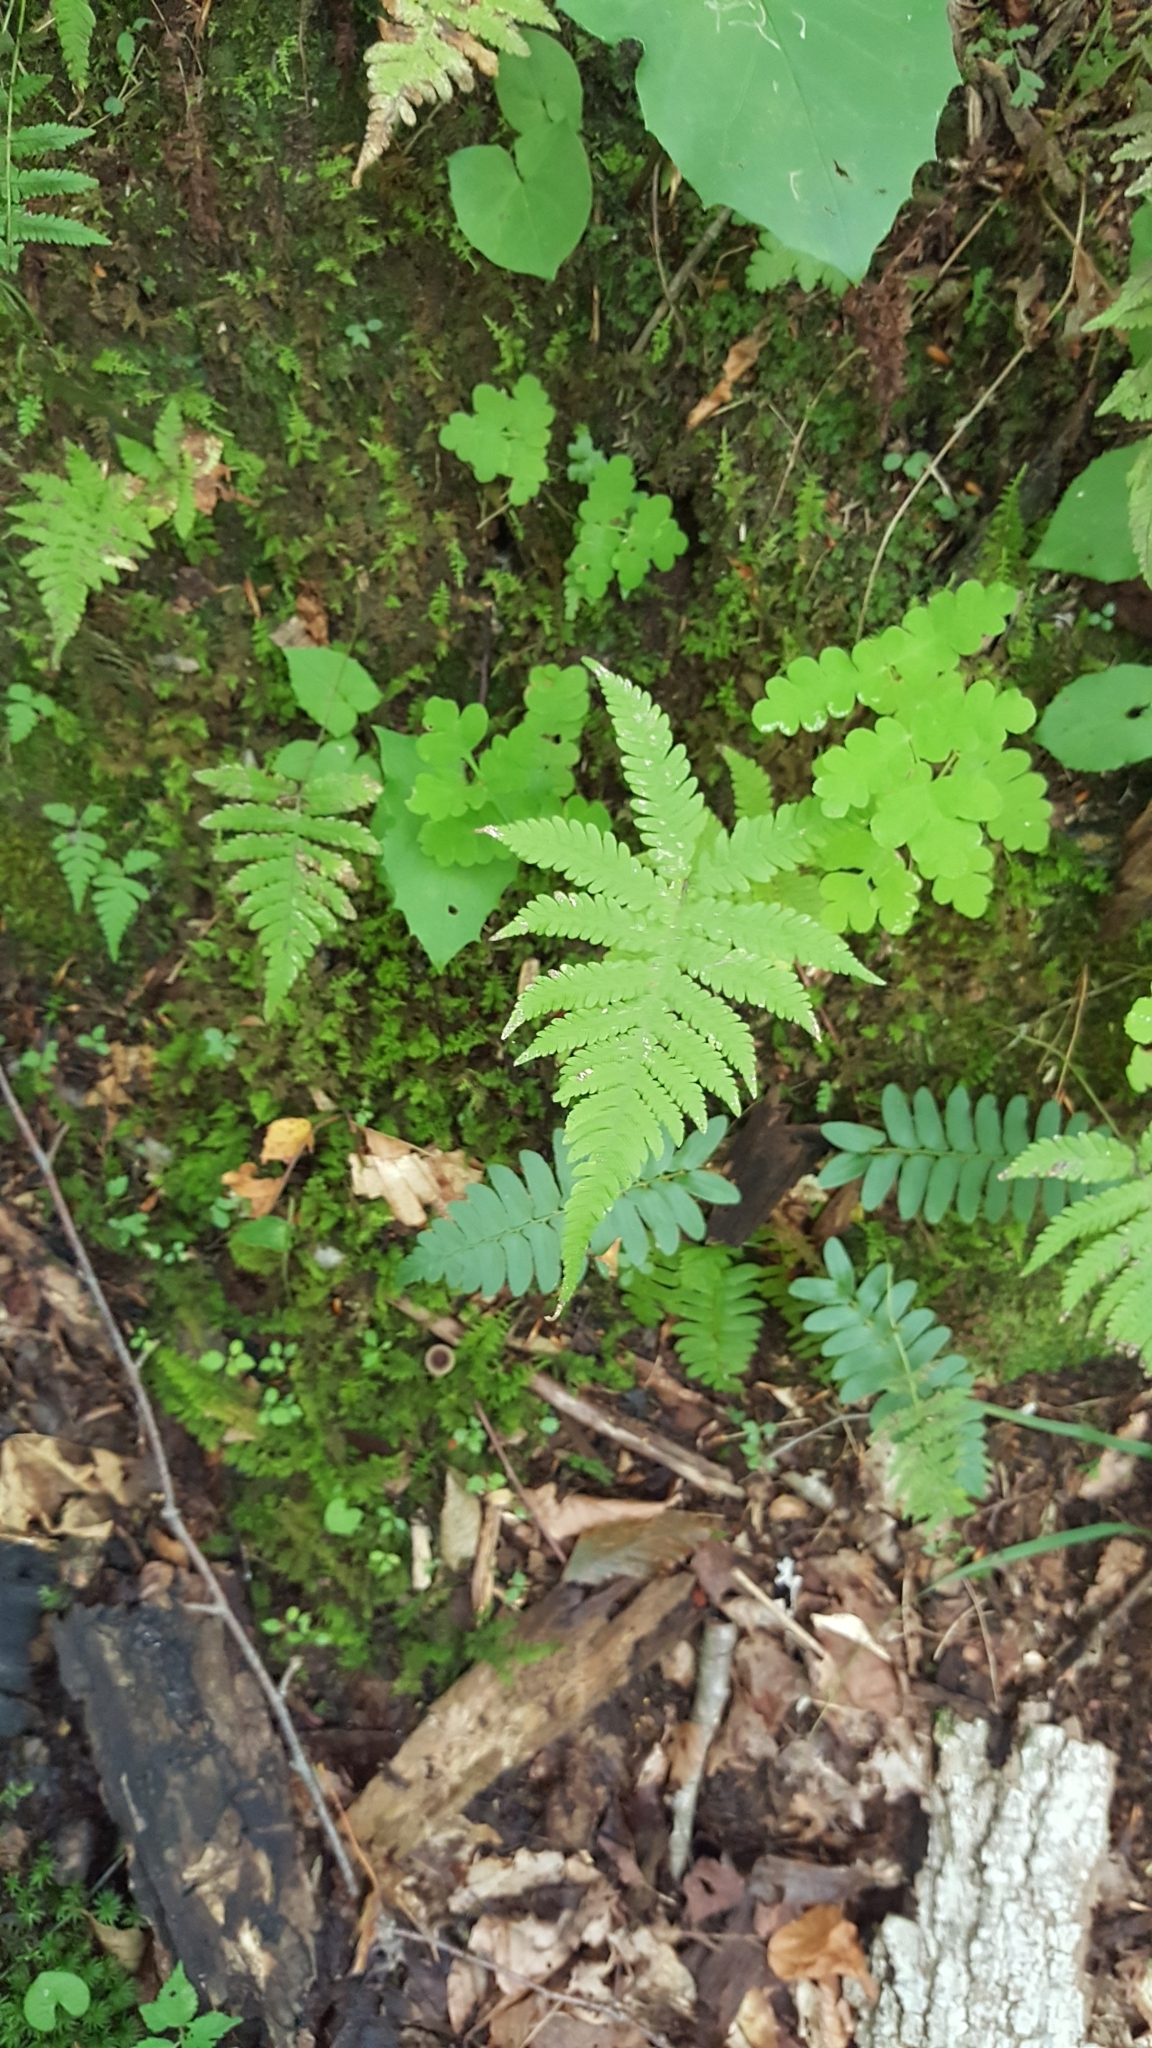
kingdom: Plantae
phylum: Tracheophyta
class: Polypodiopsida
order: Polypodiales
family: Thelypteridaceae
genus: Phegopteris
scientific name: Phegopteris connectilis
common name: Beech fern
